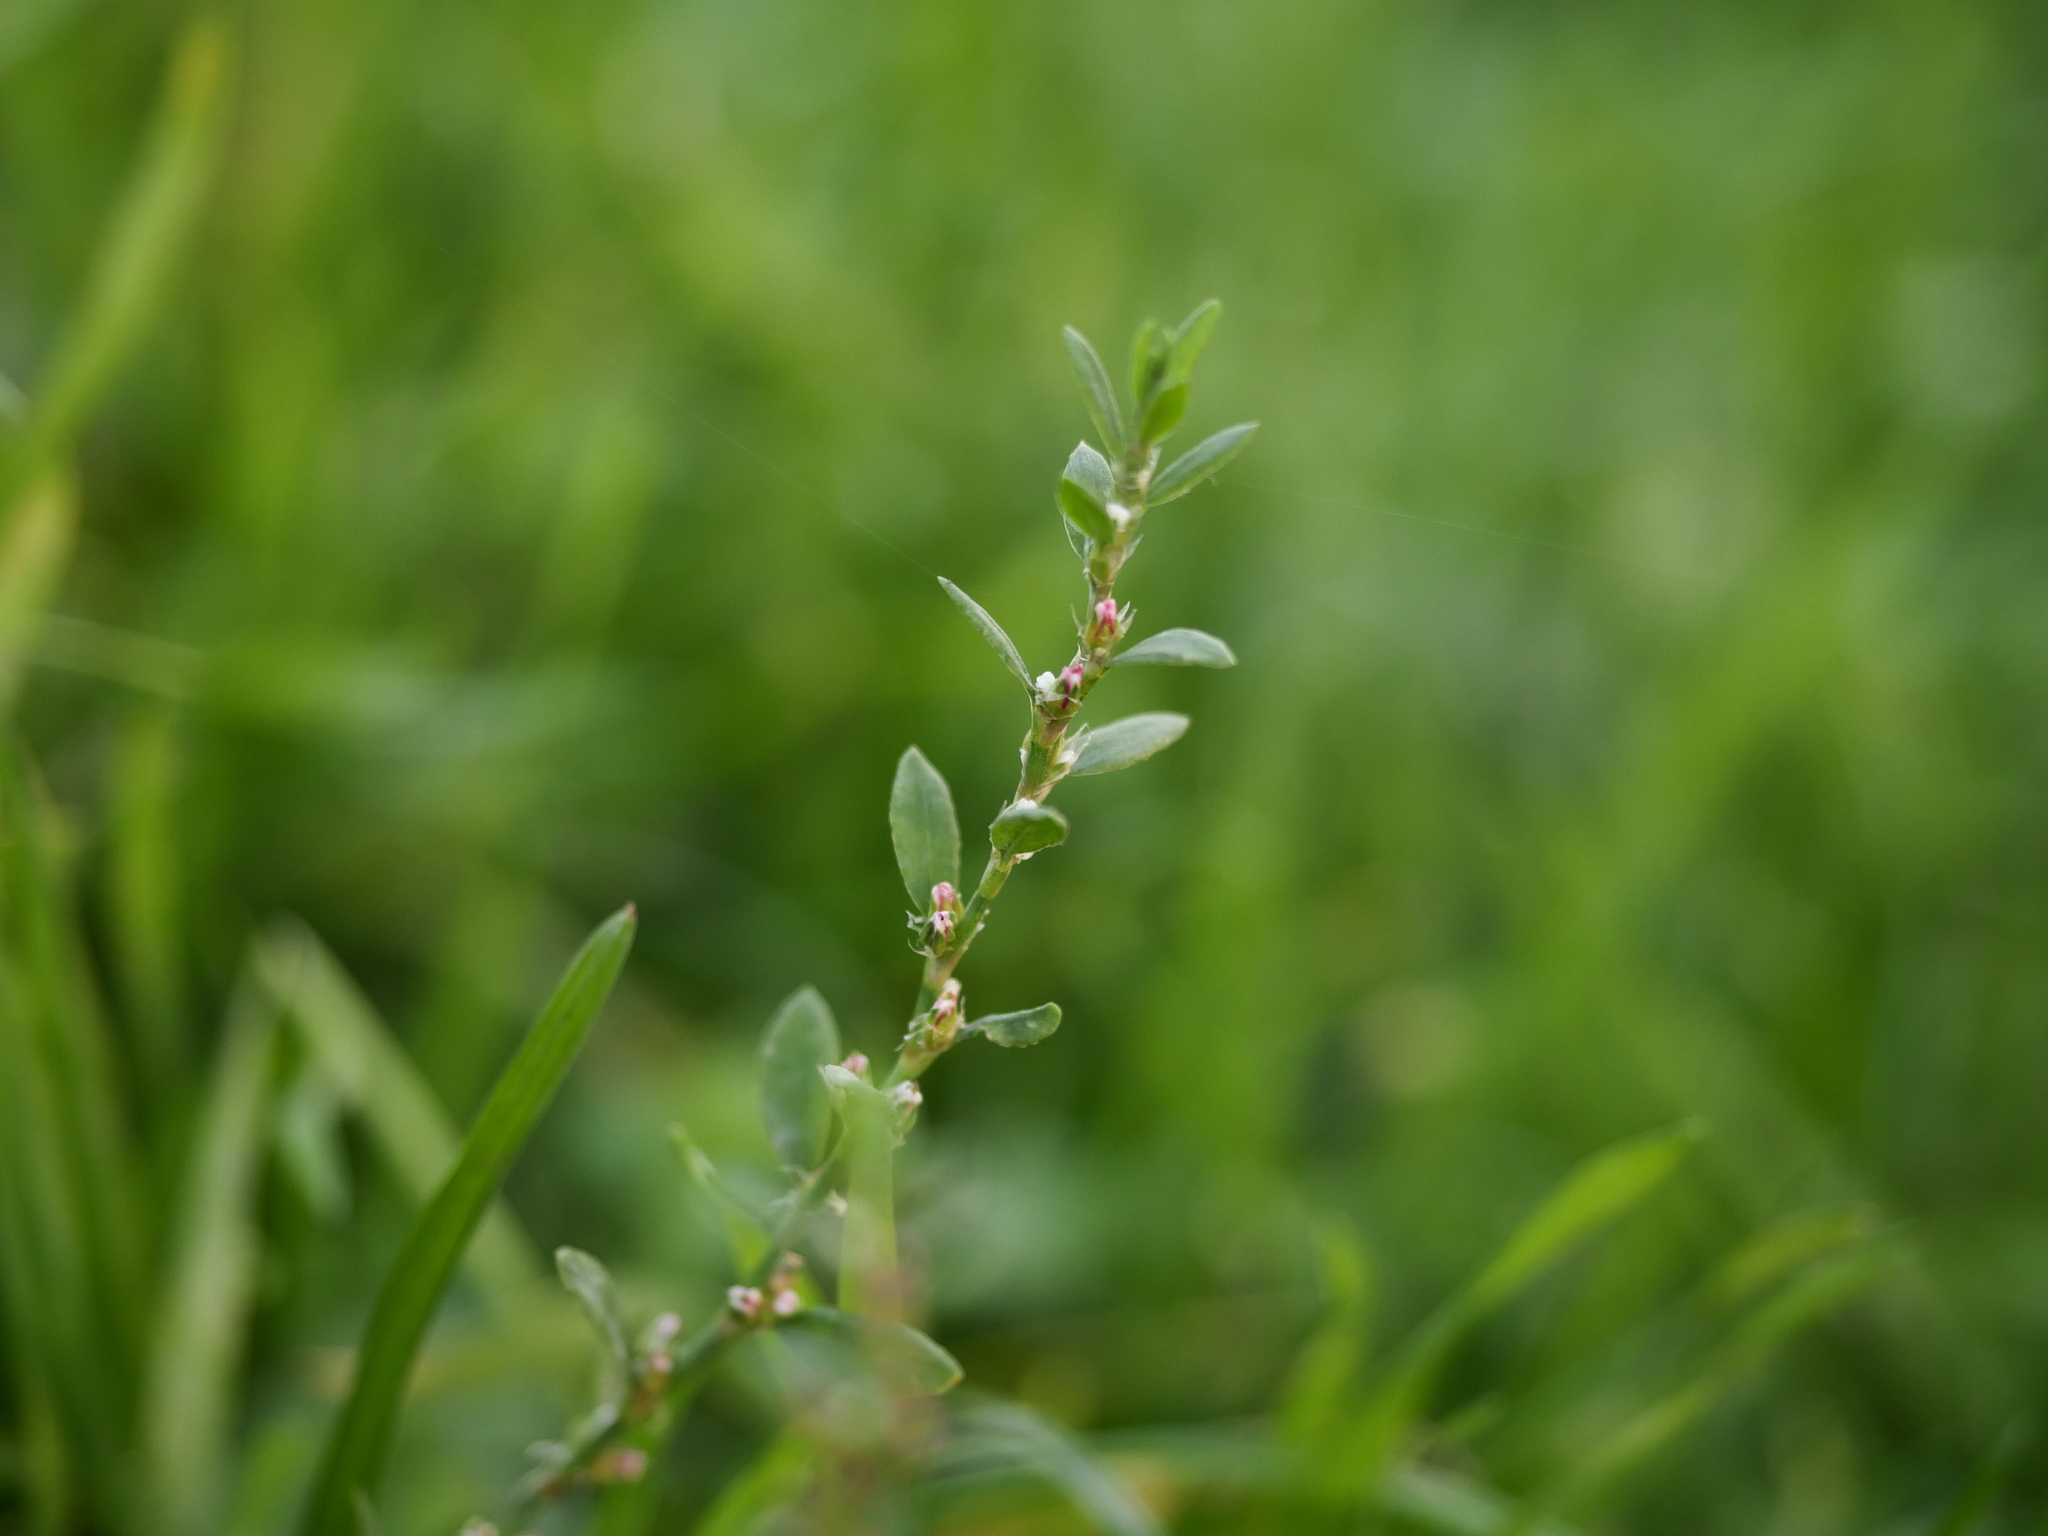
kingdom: Plantae
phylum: Tracheophyta
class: Magnoliopsida
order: Caryophyllales
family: Polygonaceae
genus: Polygonum
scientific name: Polygonum aviculare
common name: Prostrate knotweed
